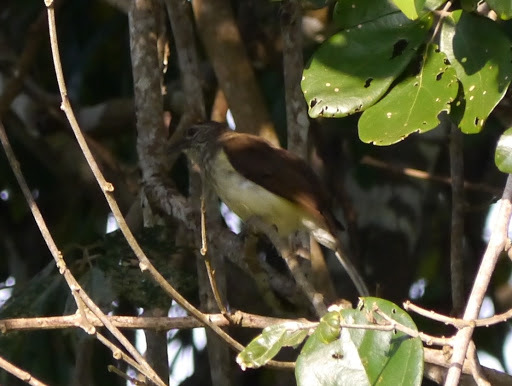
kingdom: Animalia
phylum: Chordata
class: Aves
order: Passeriformes
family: Pycnonotidae
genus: Thescelocichla
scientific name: Thescelocichla leucopleura
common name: Swamp palm bulbul
